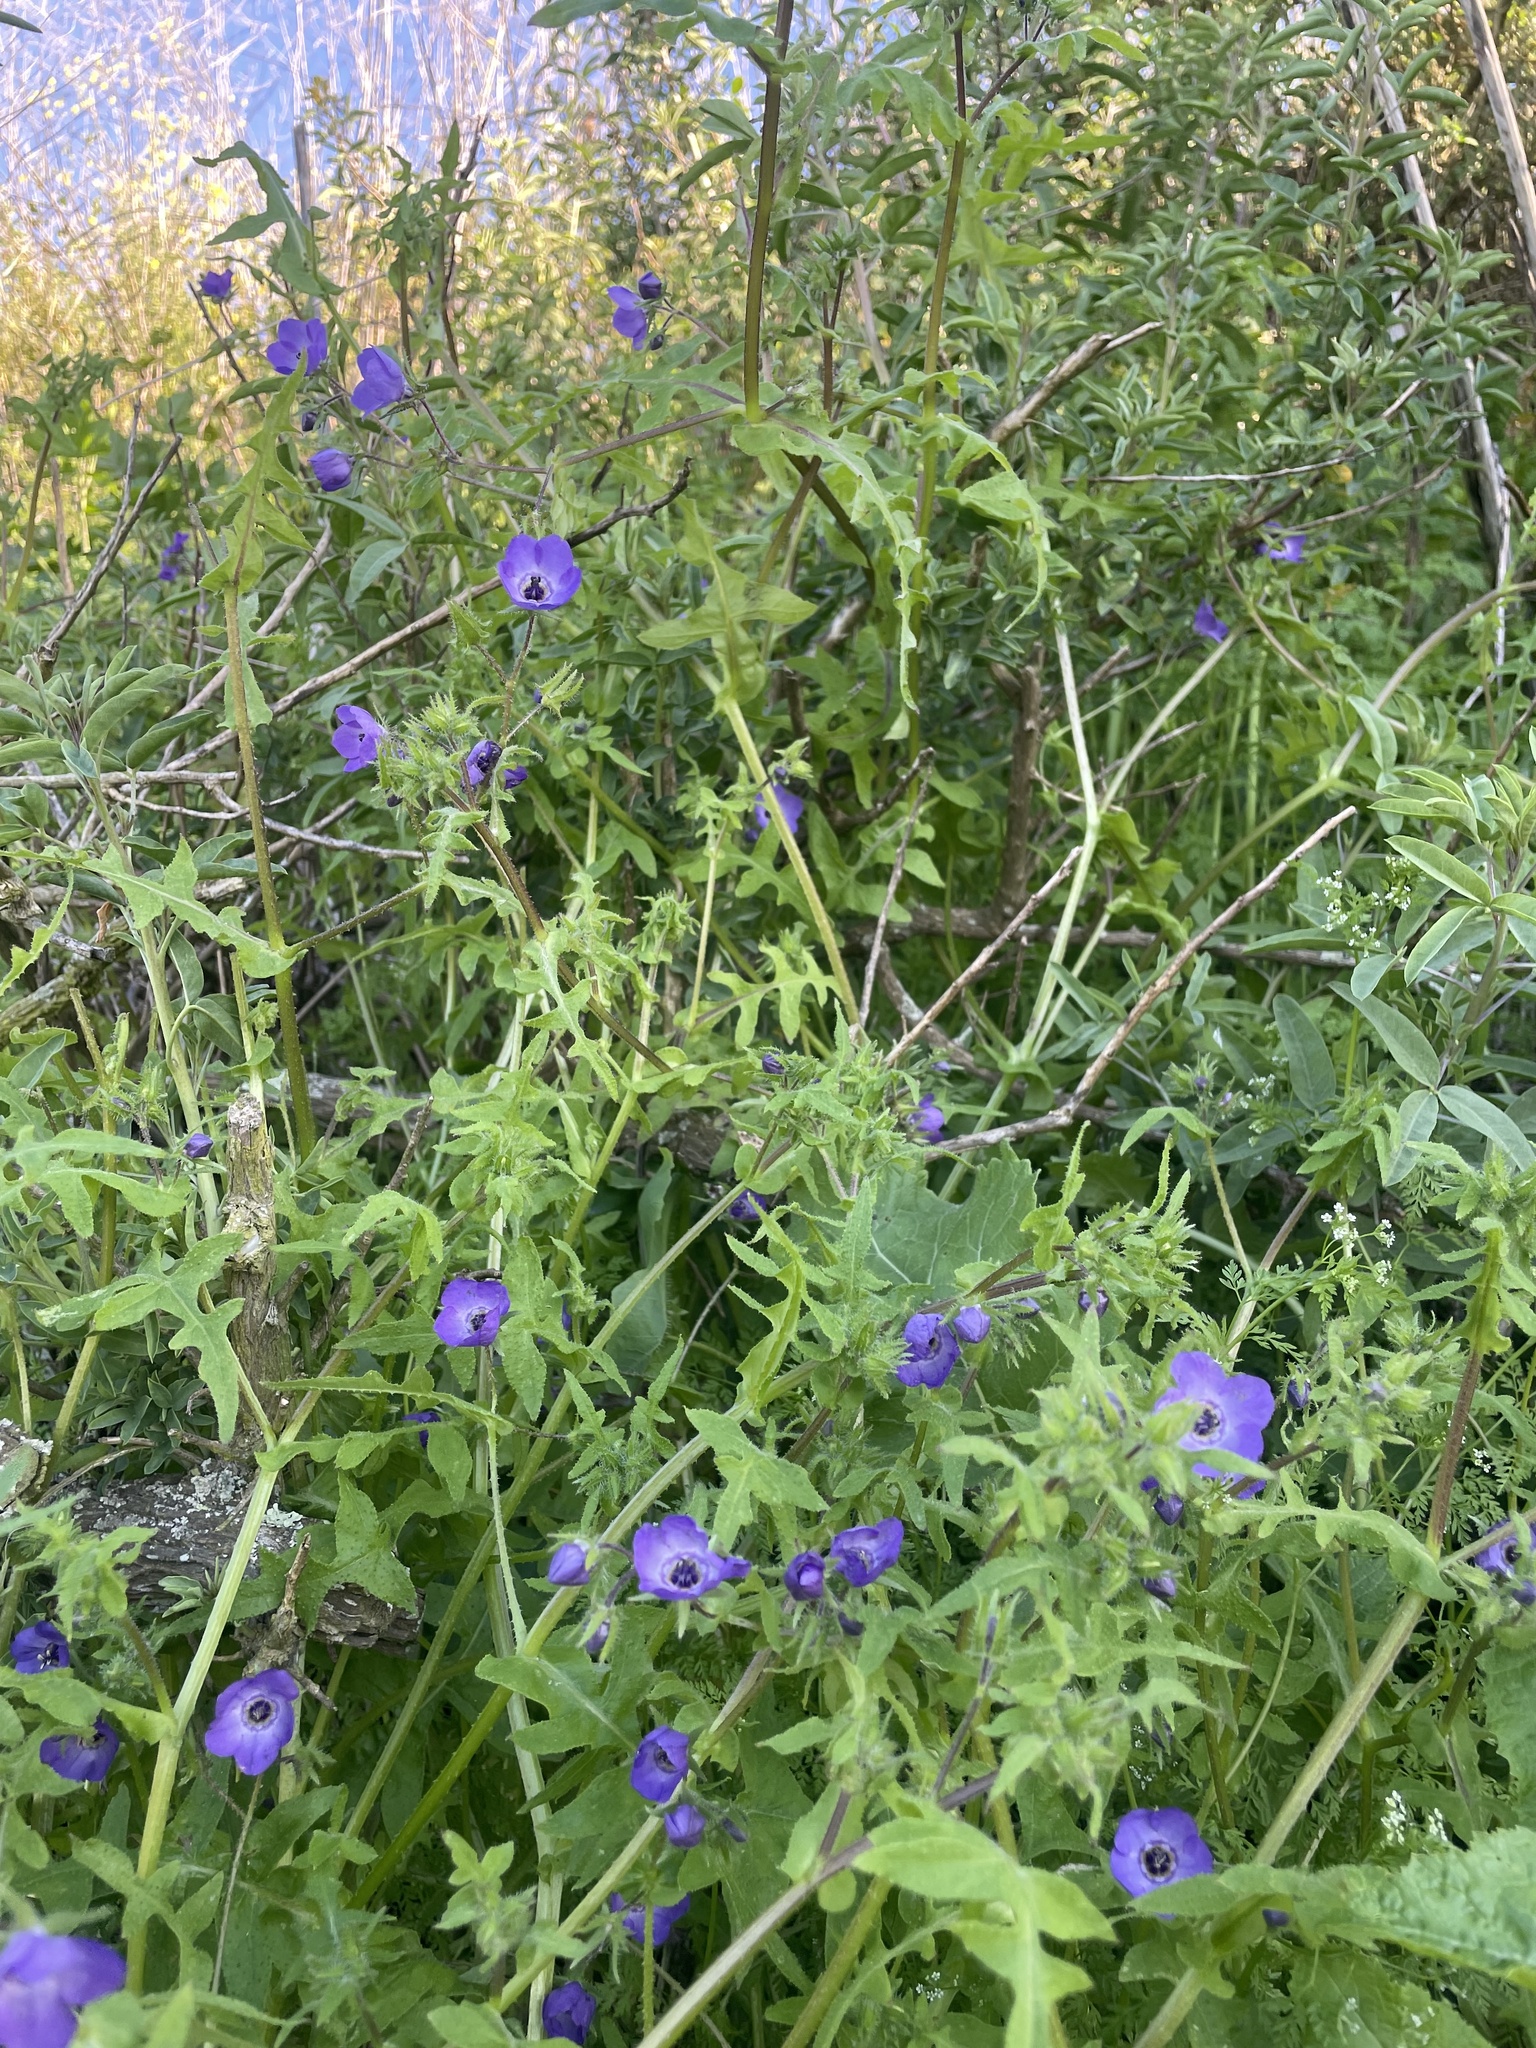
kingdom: Plantae
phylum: Tracheophyta
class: Magnoliopsida
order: Boraginales
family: Hydrophyllaceae
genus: Pholistoma
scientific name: Pholistoma auritum
